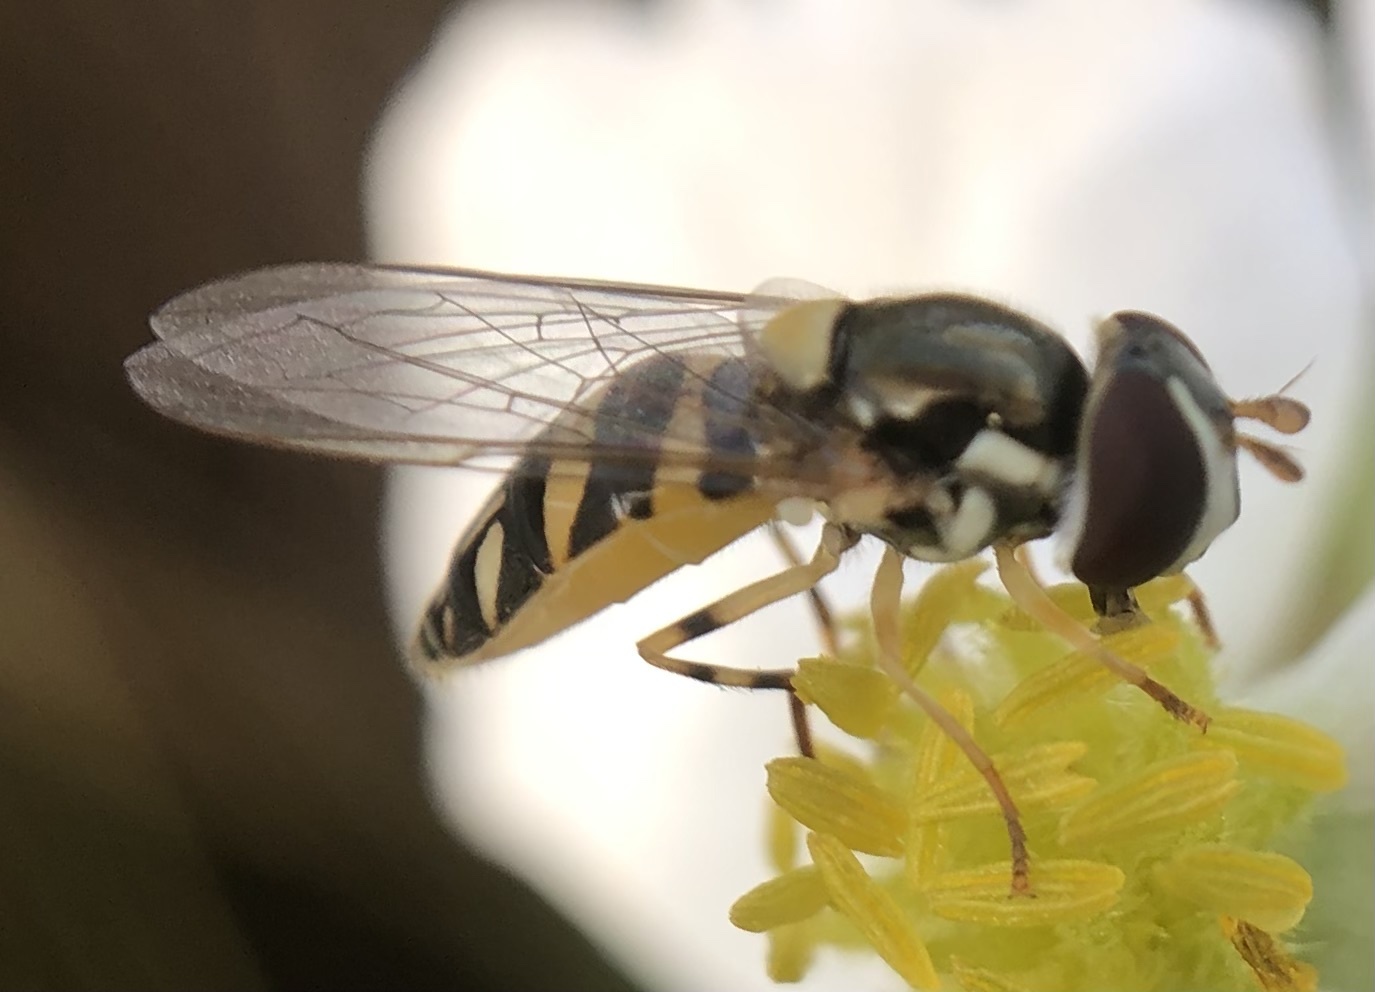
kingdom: Animalia
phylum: Arthropoda
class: Insecta
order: Diptera
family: Syrphidae
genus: Allograpta
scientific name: Allograpta exotica
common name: Syrphid fly
